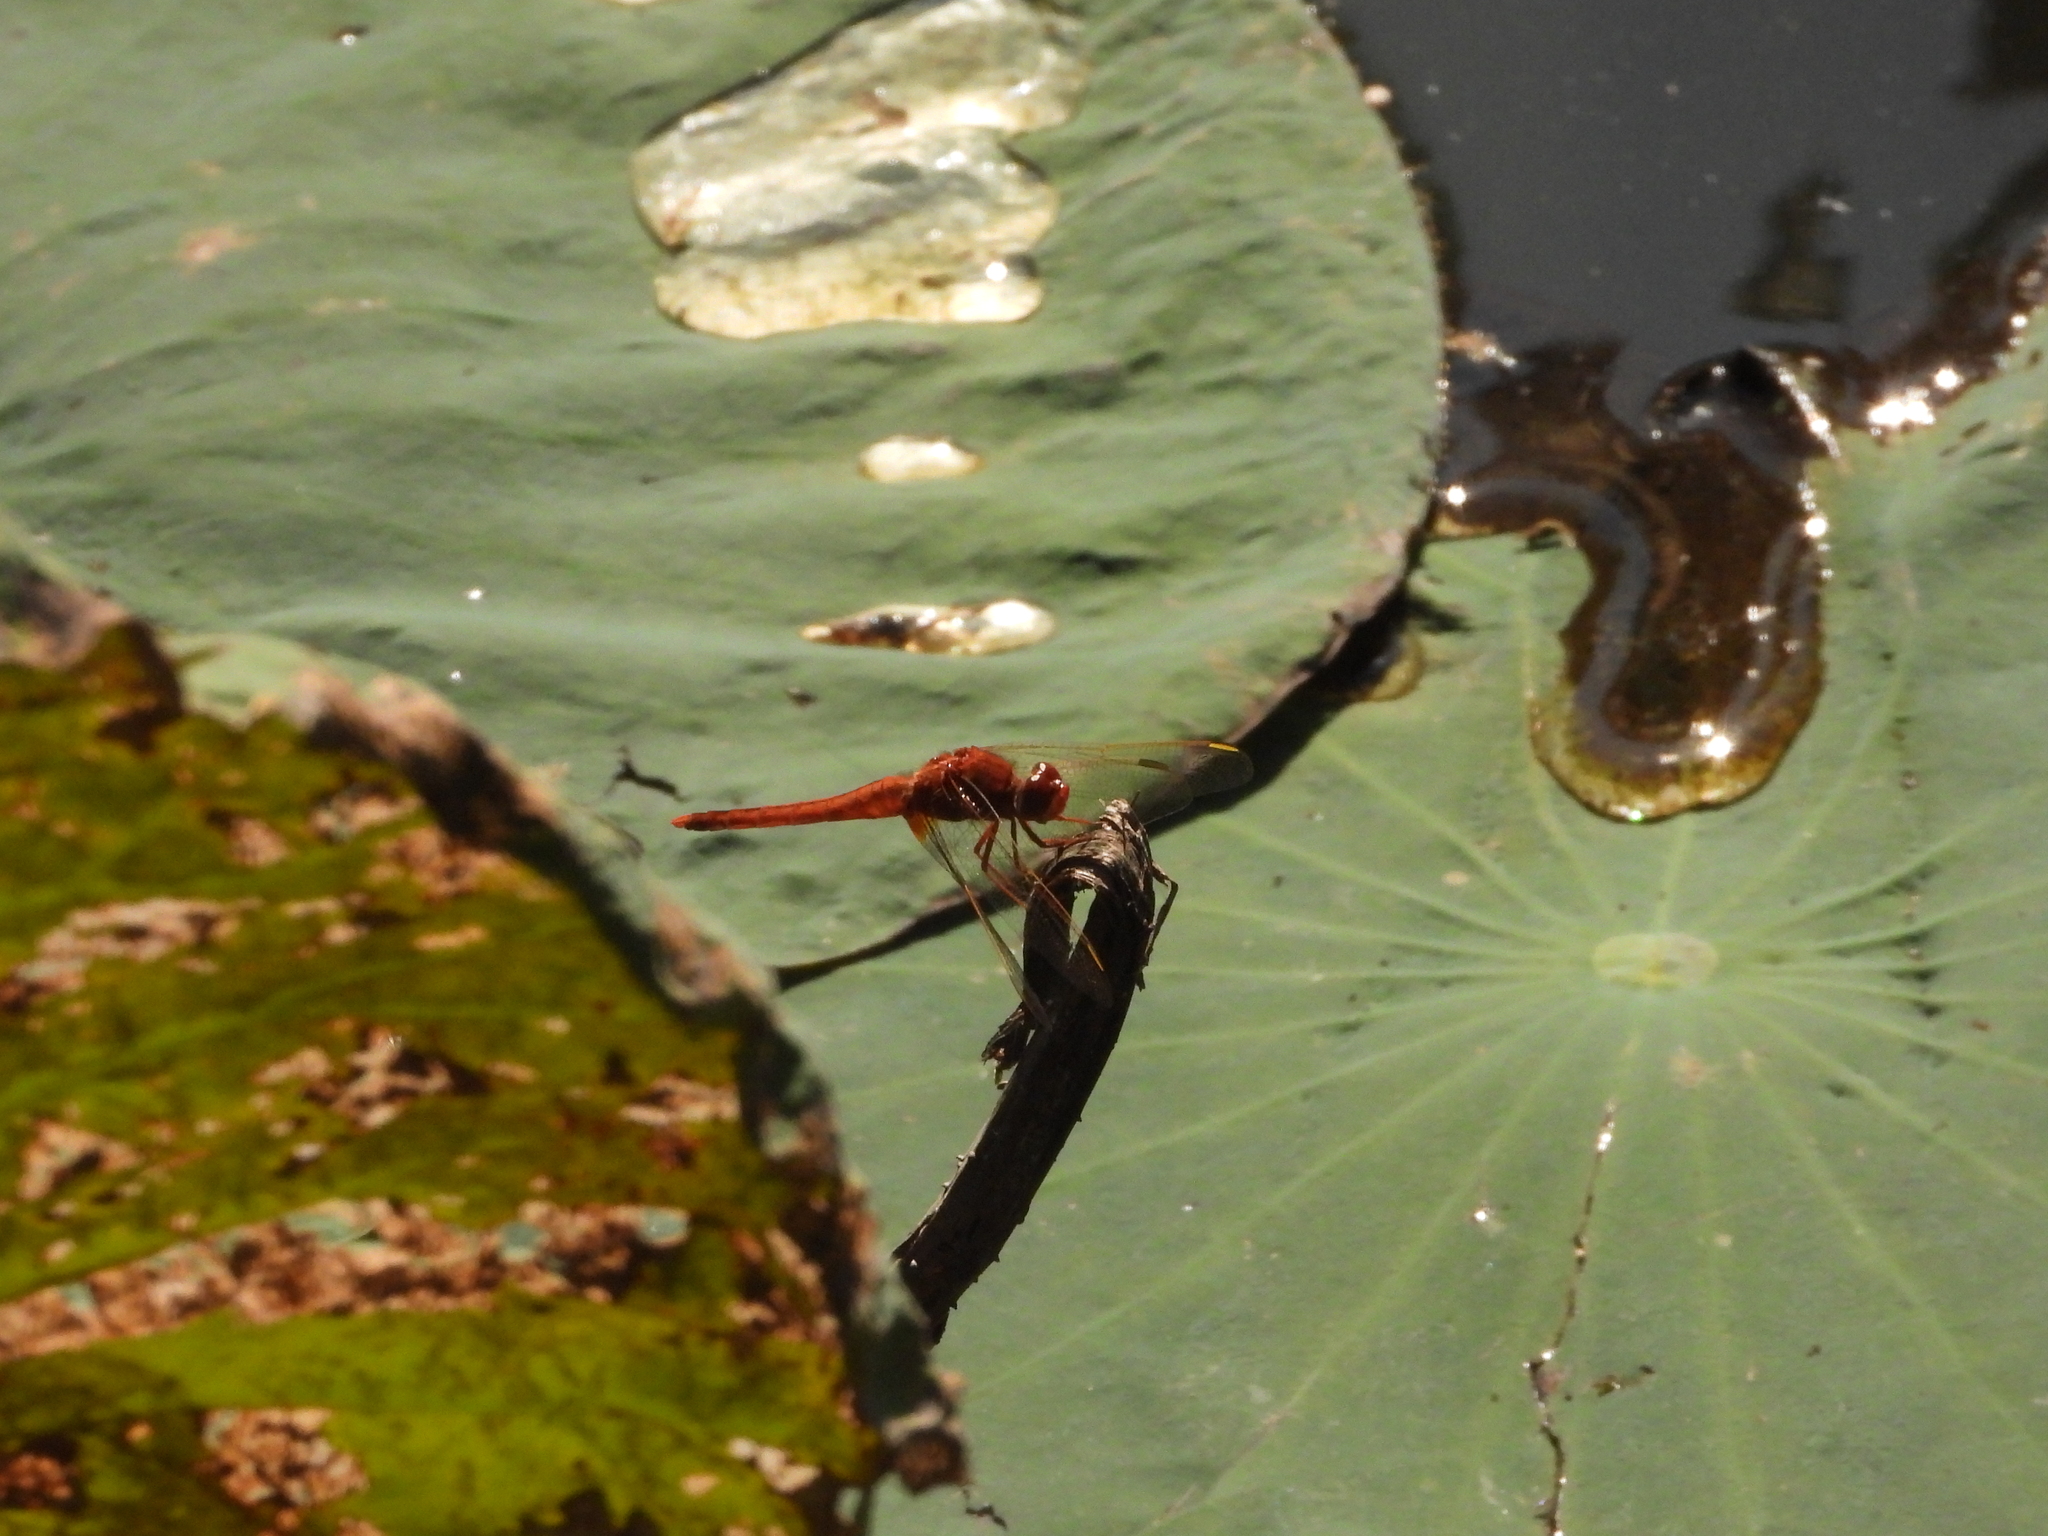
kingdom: Animalia
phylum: Arthropoda
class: Insecta
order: Odonata
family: Libellulidae
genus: Crocothemis
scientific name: Crocothemis servilia
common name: Scarlet skimmer
